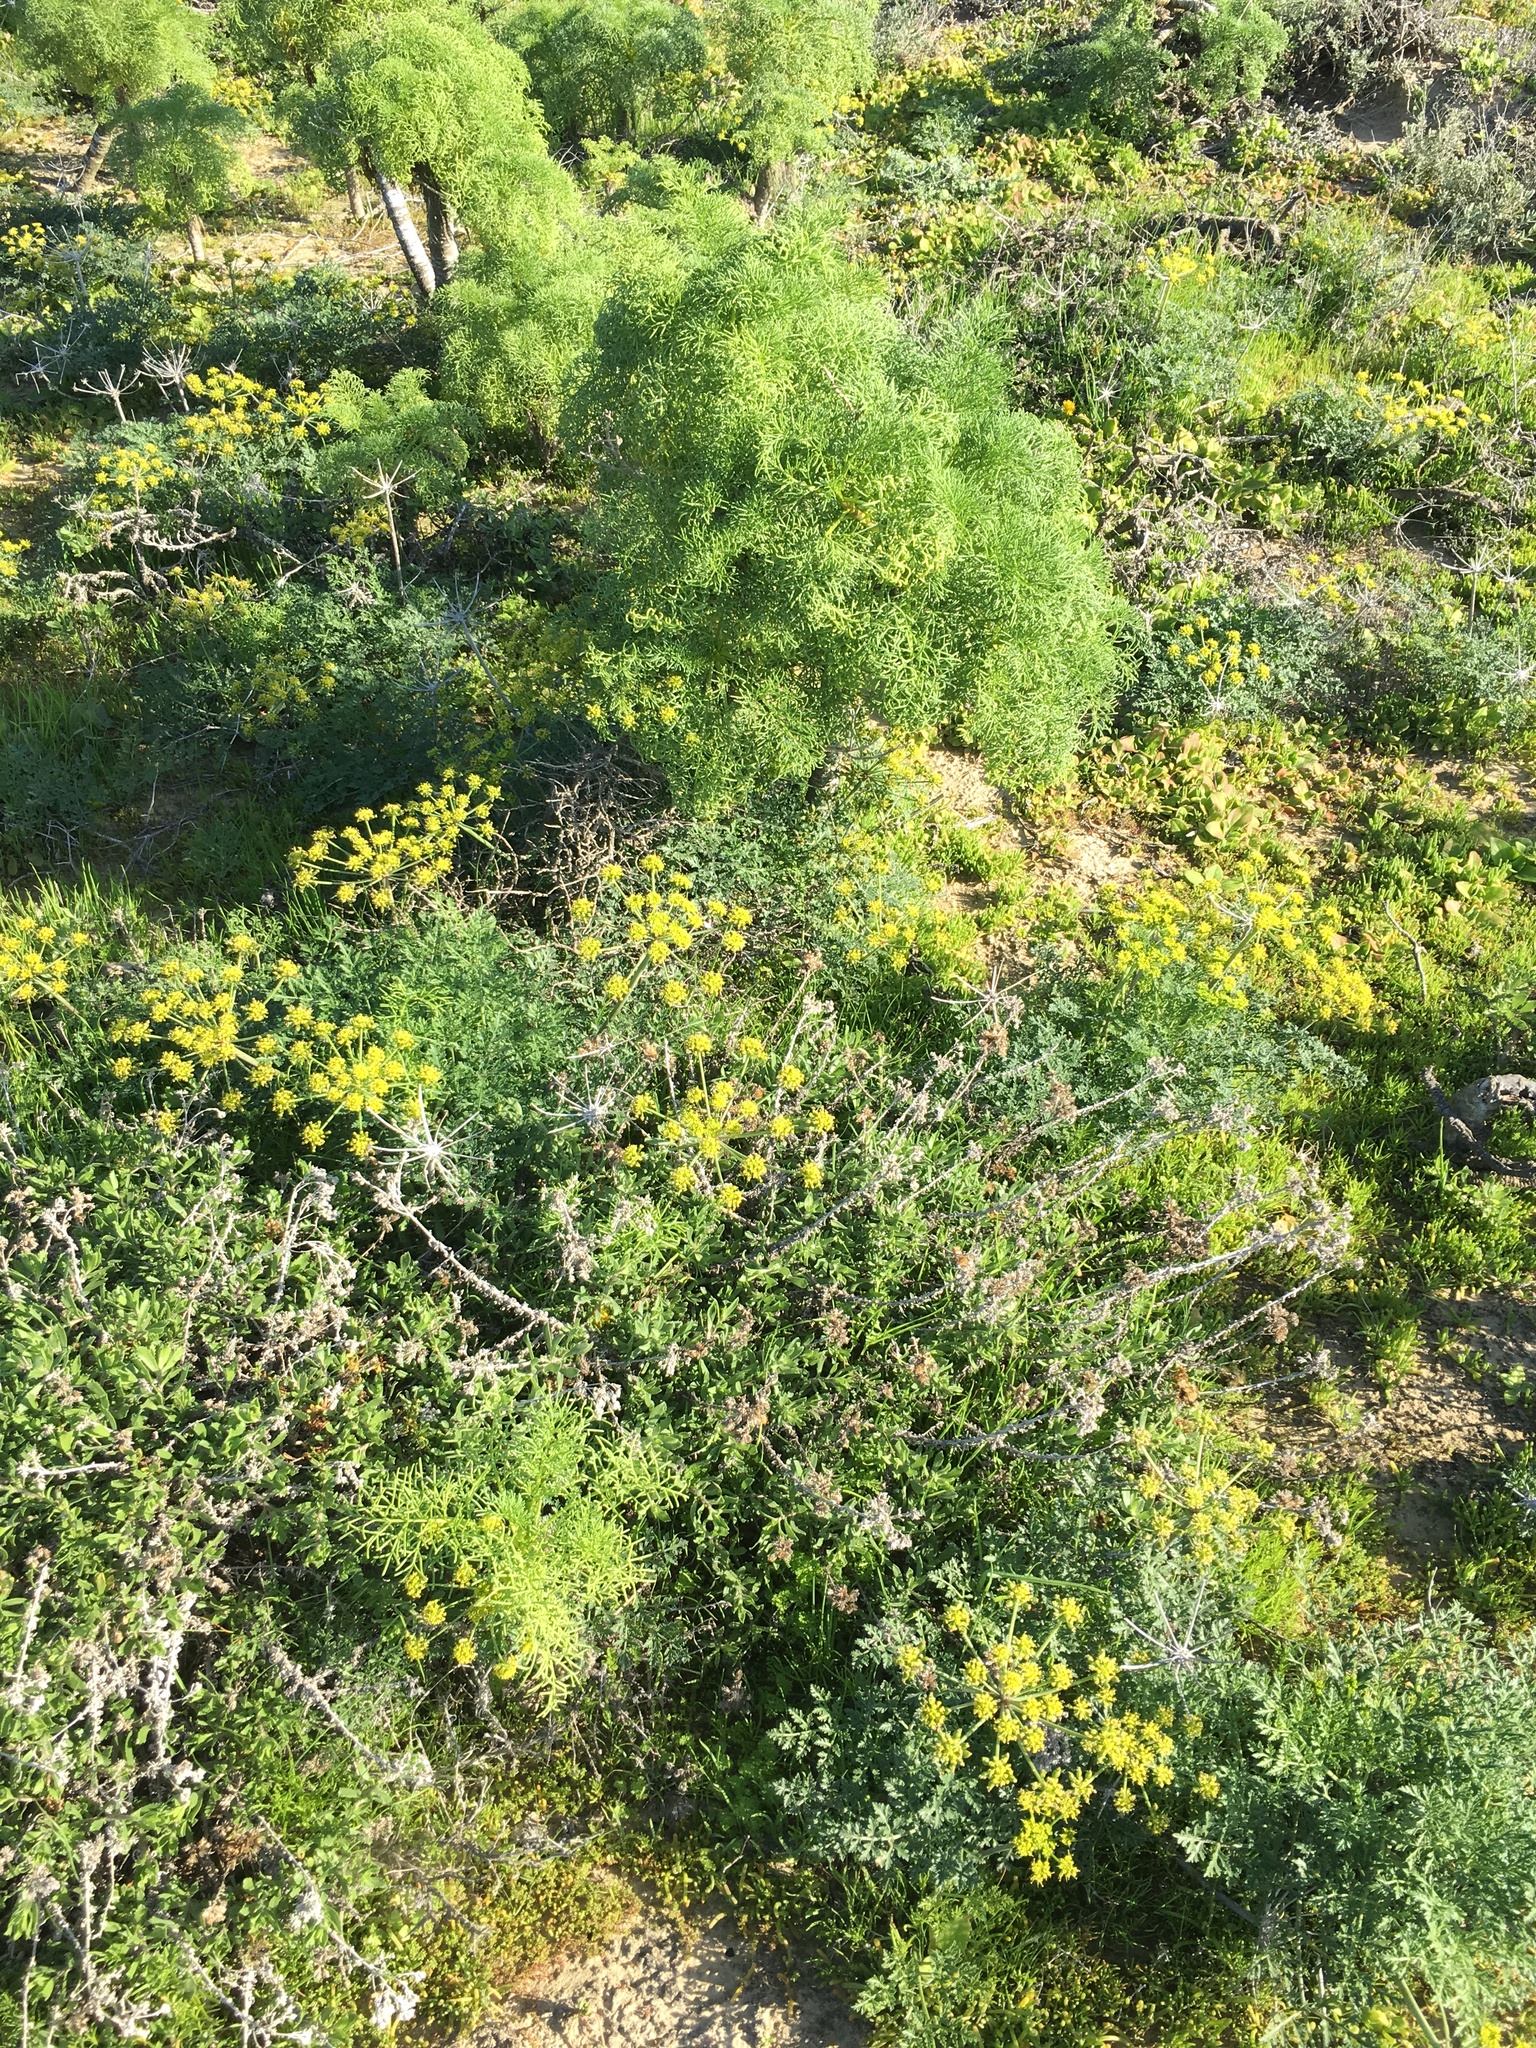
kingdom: Plantae
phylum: Tracheophyta
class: Magnoliopsida
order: Asterales
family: Asteraceae
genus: Coreopsis
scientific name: Coreopsis gigantea
